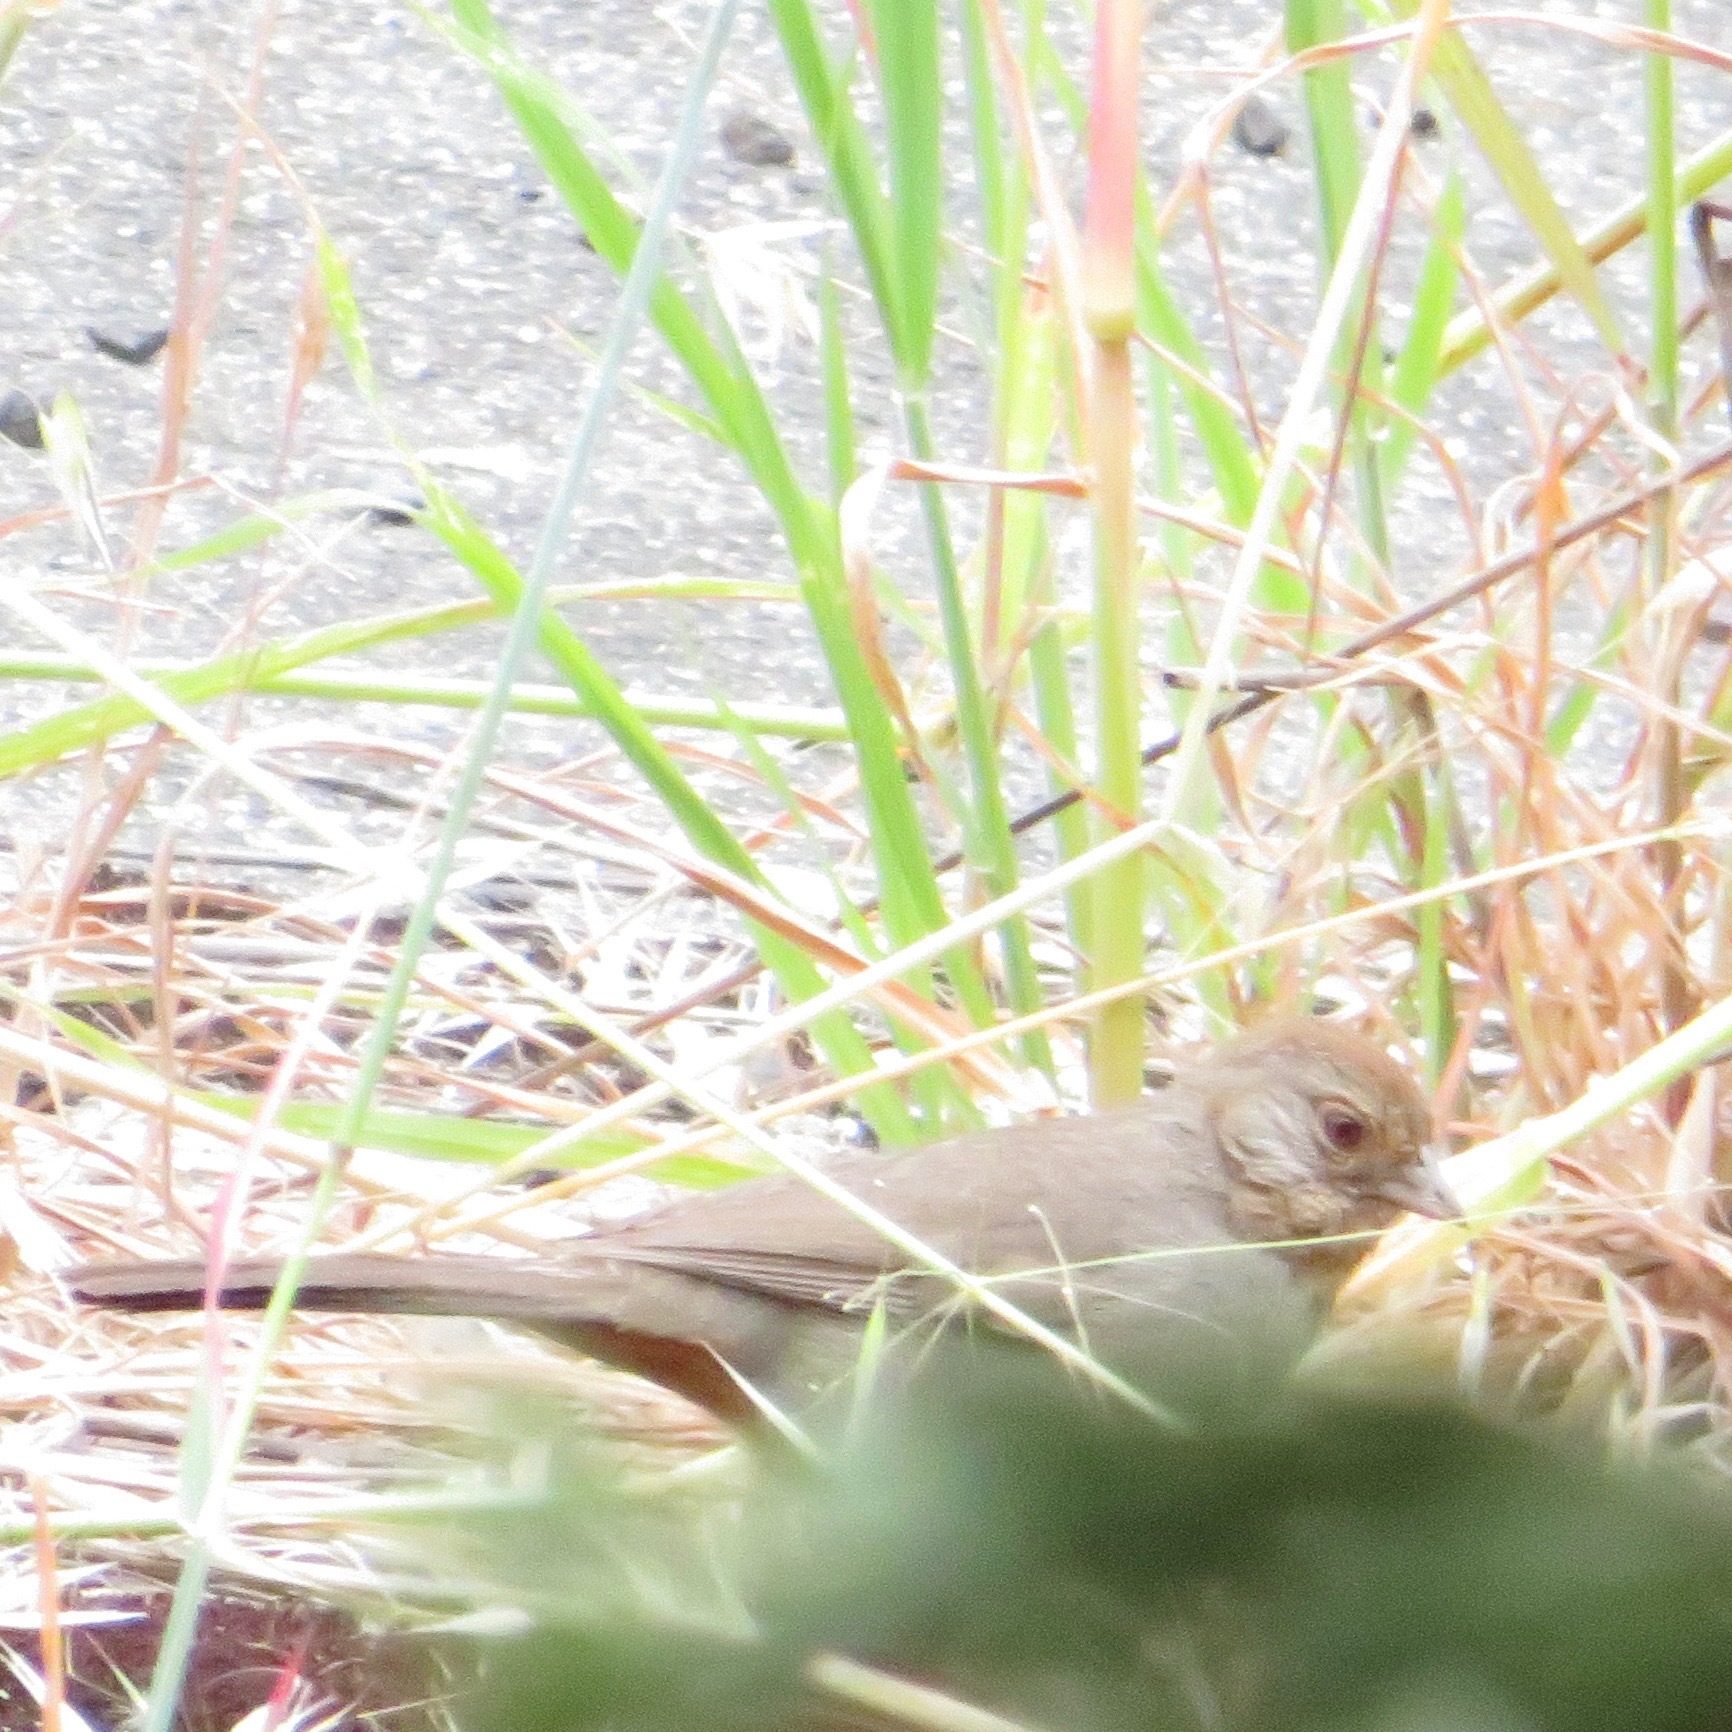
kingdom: Animalia
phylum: Chordata
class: Aves
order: Passeriformes
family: Passerellidae
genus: Melozone
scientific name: Melozone crissalis
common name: California towhee
